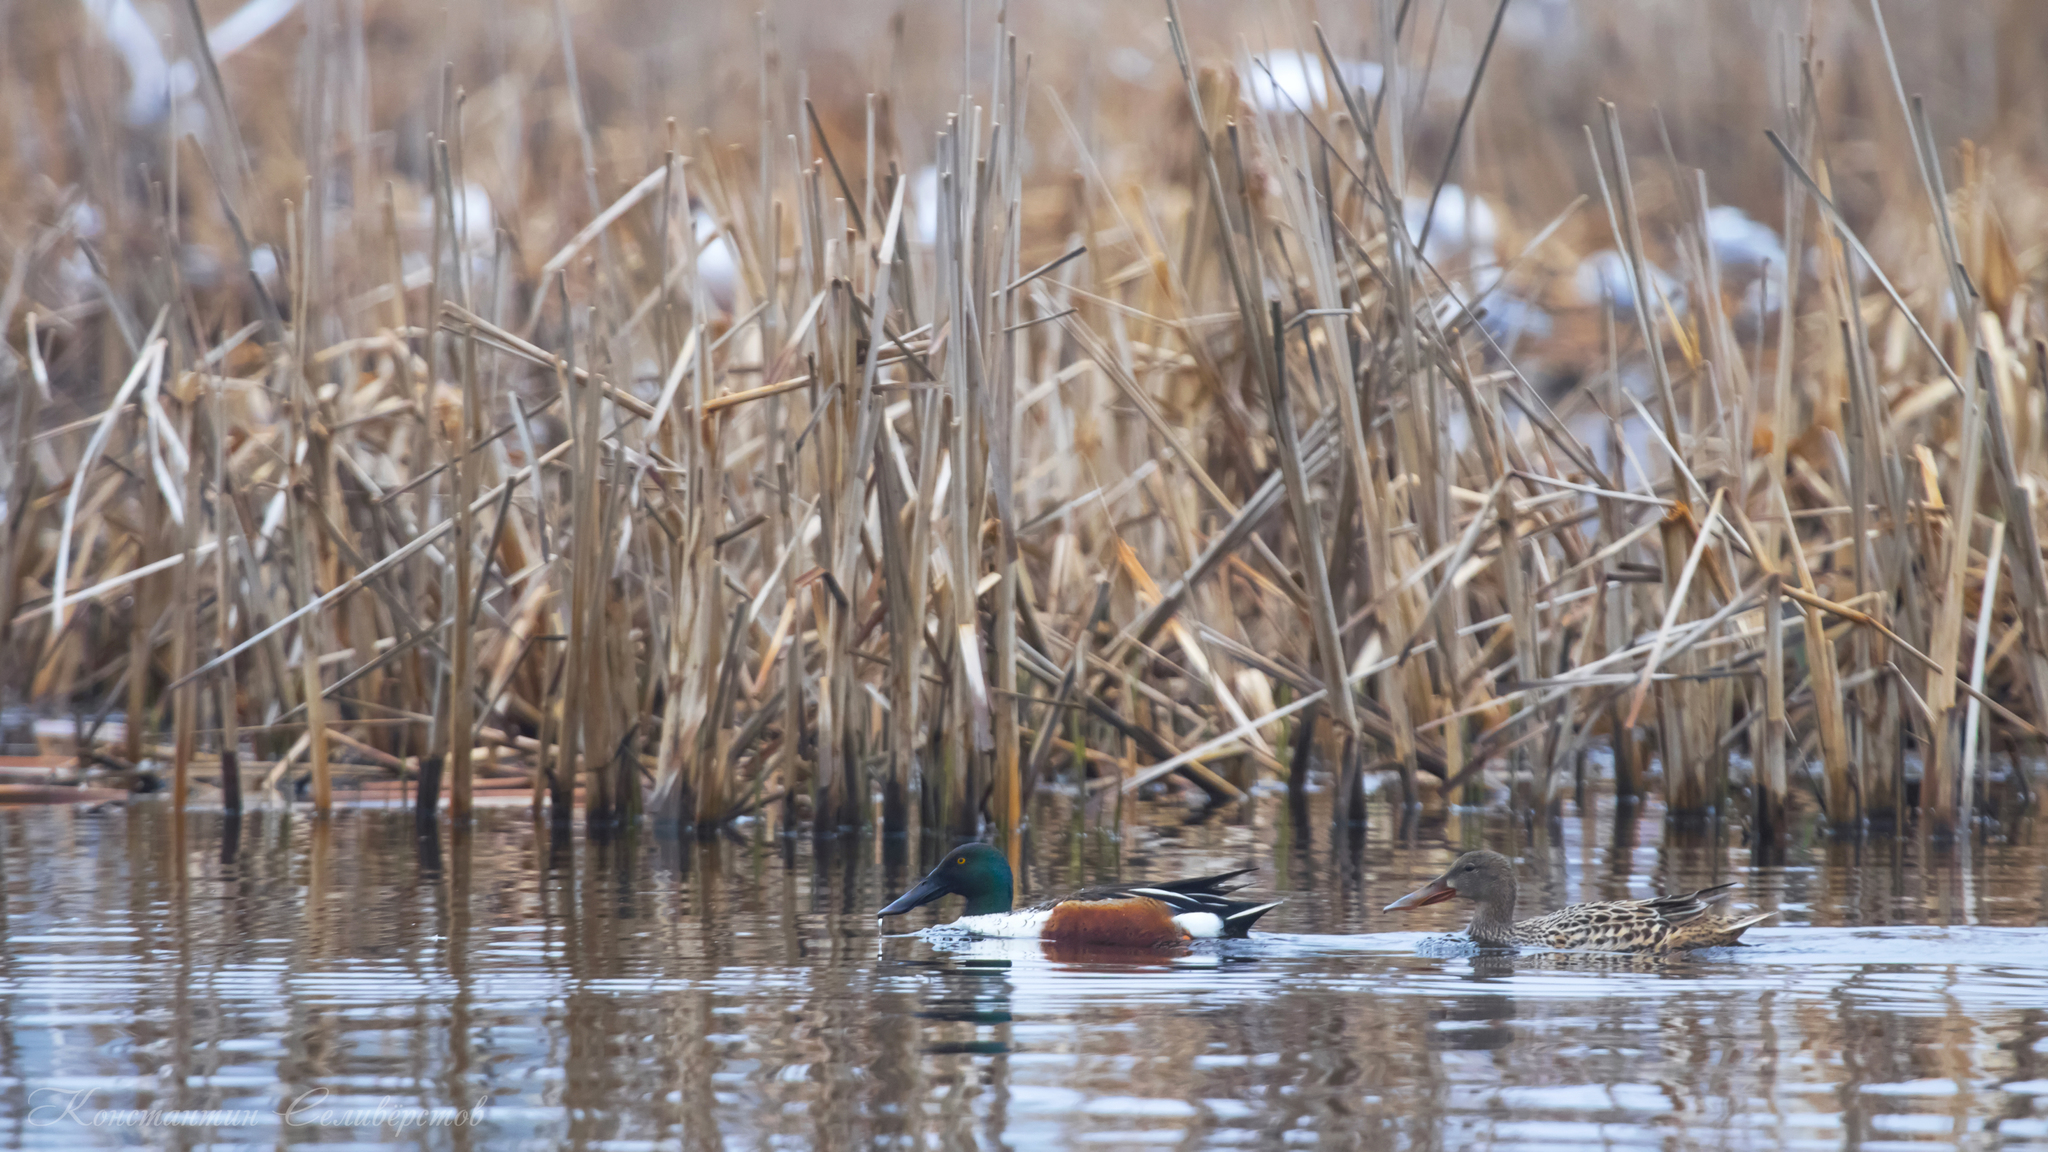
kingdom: Animalia
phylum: Chordata
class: Aves
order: Anseriformes
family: Anatidae
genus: Spatula
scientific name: Spatula clypeata
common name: Northern shoveler
